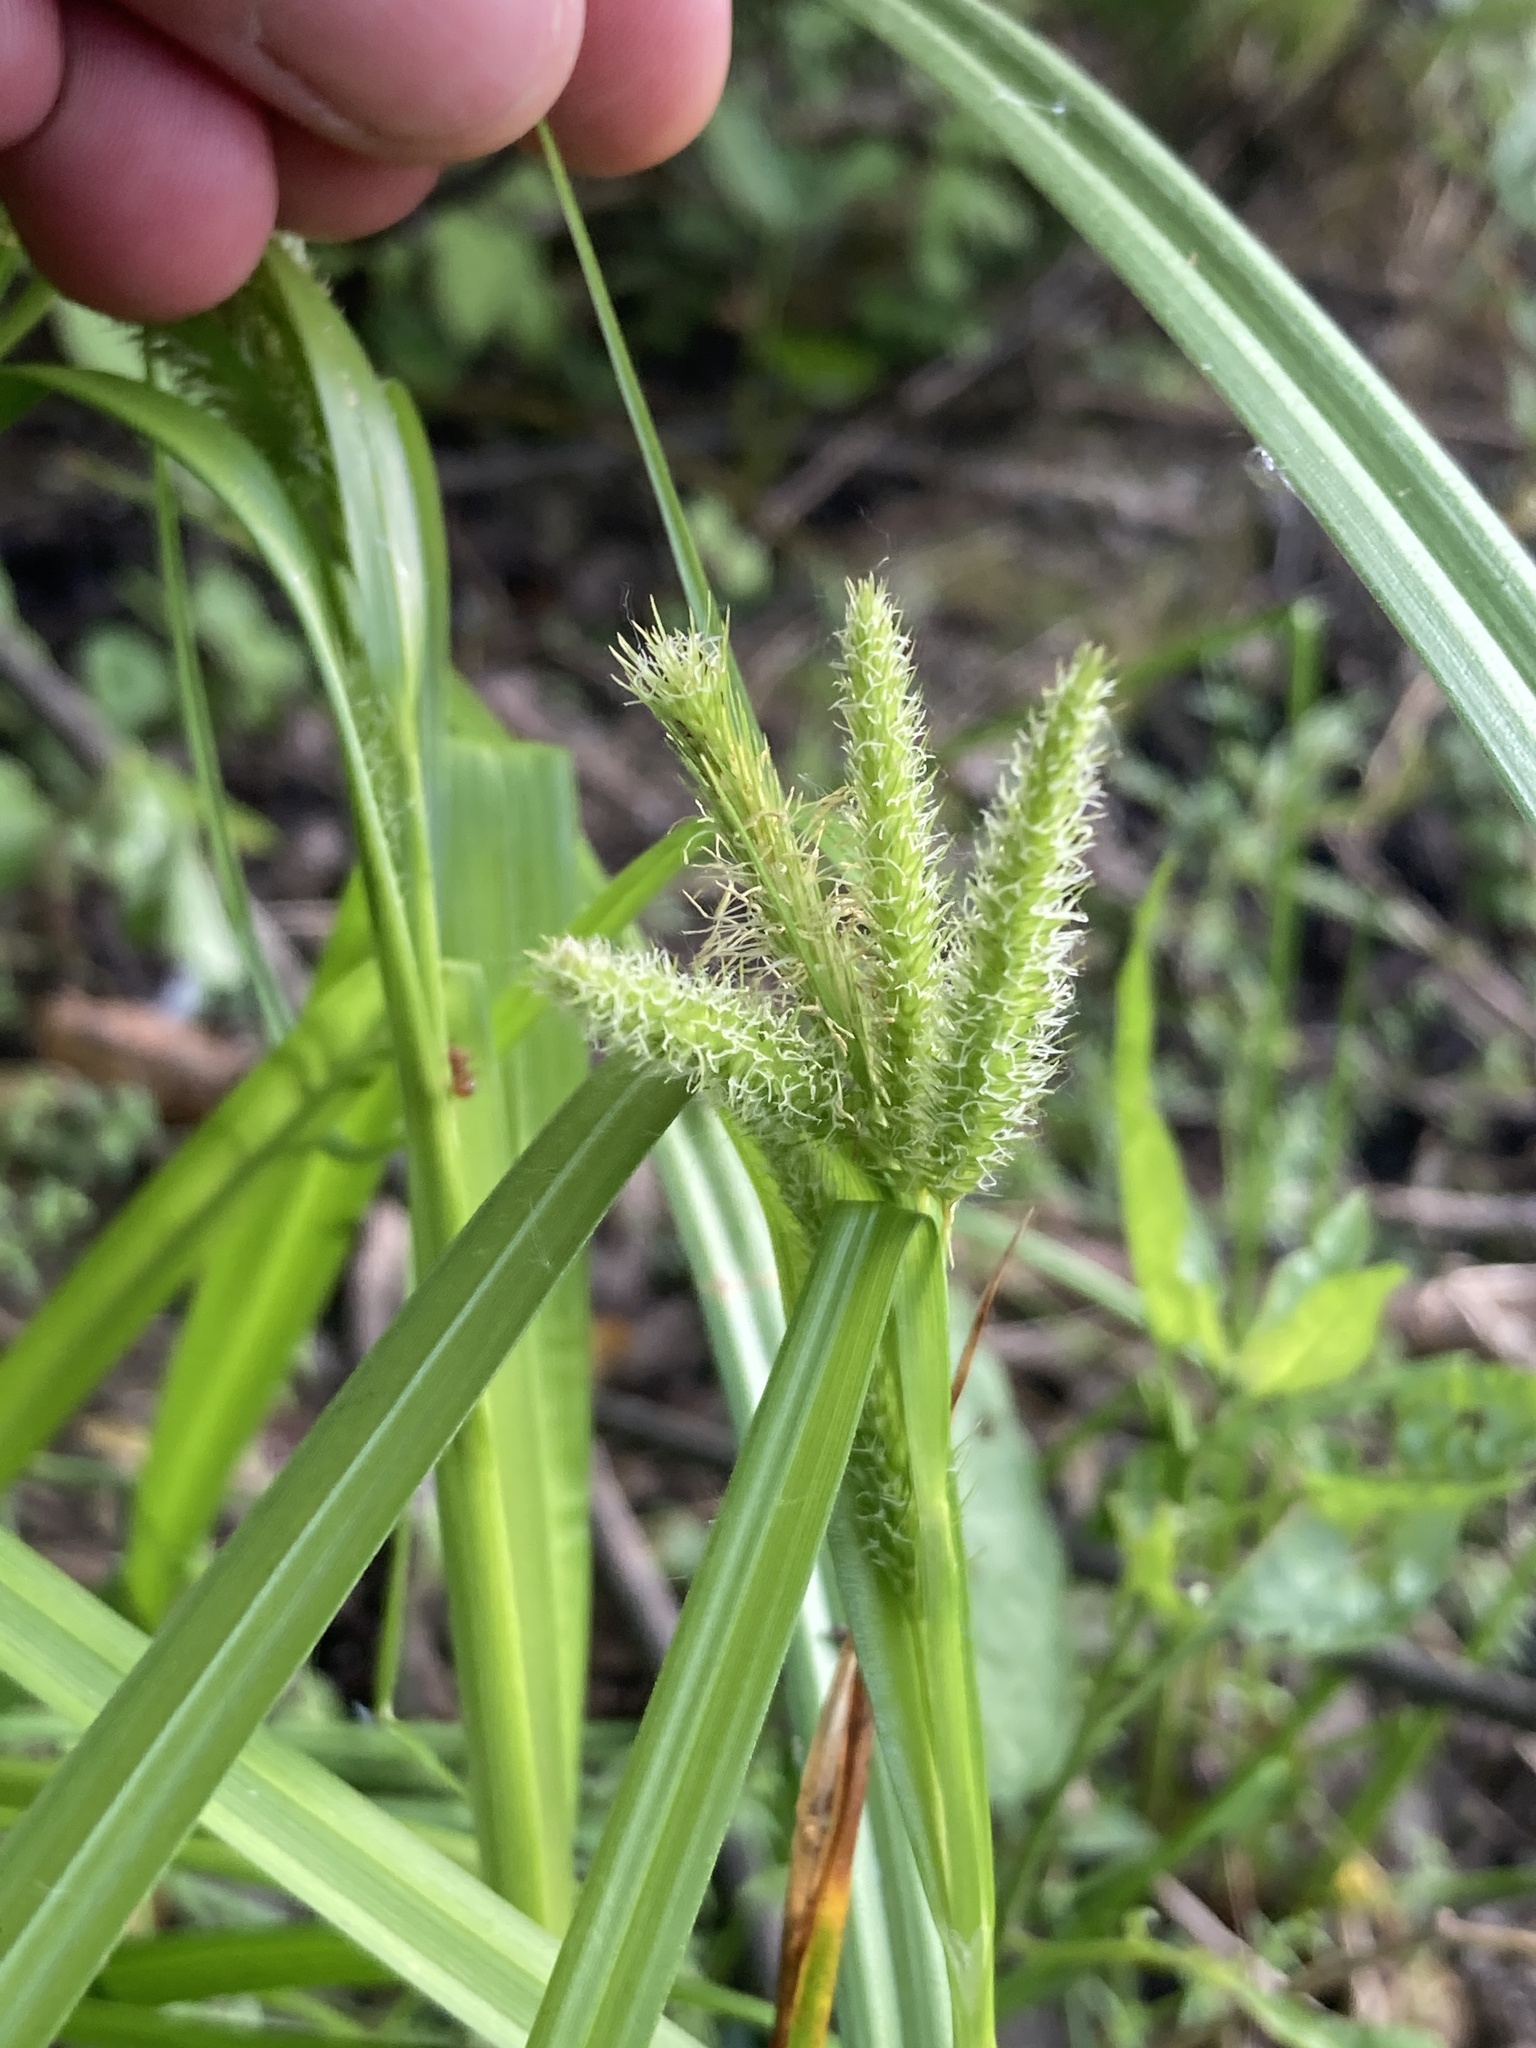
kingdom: Plantae
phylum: Tracheophyta
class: Liliopsida
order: Poales
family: Cyperaceae
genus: Carex
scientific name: Carex pseudocyperus
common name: Cyperus sedge
